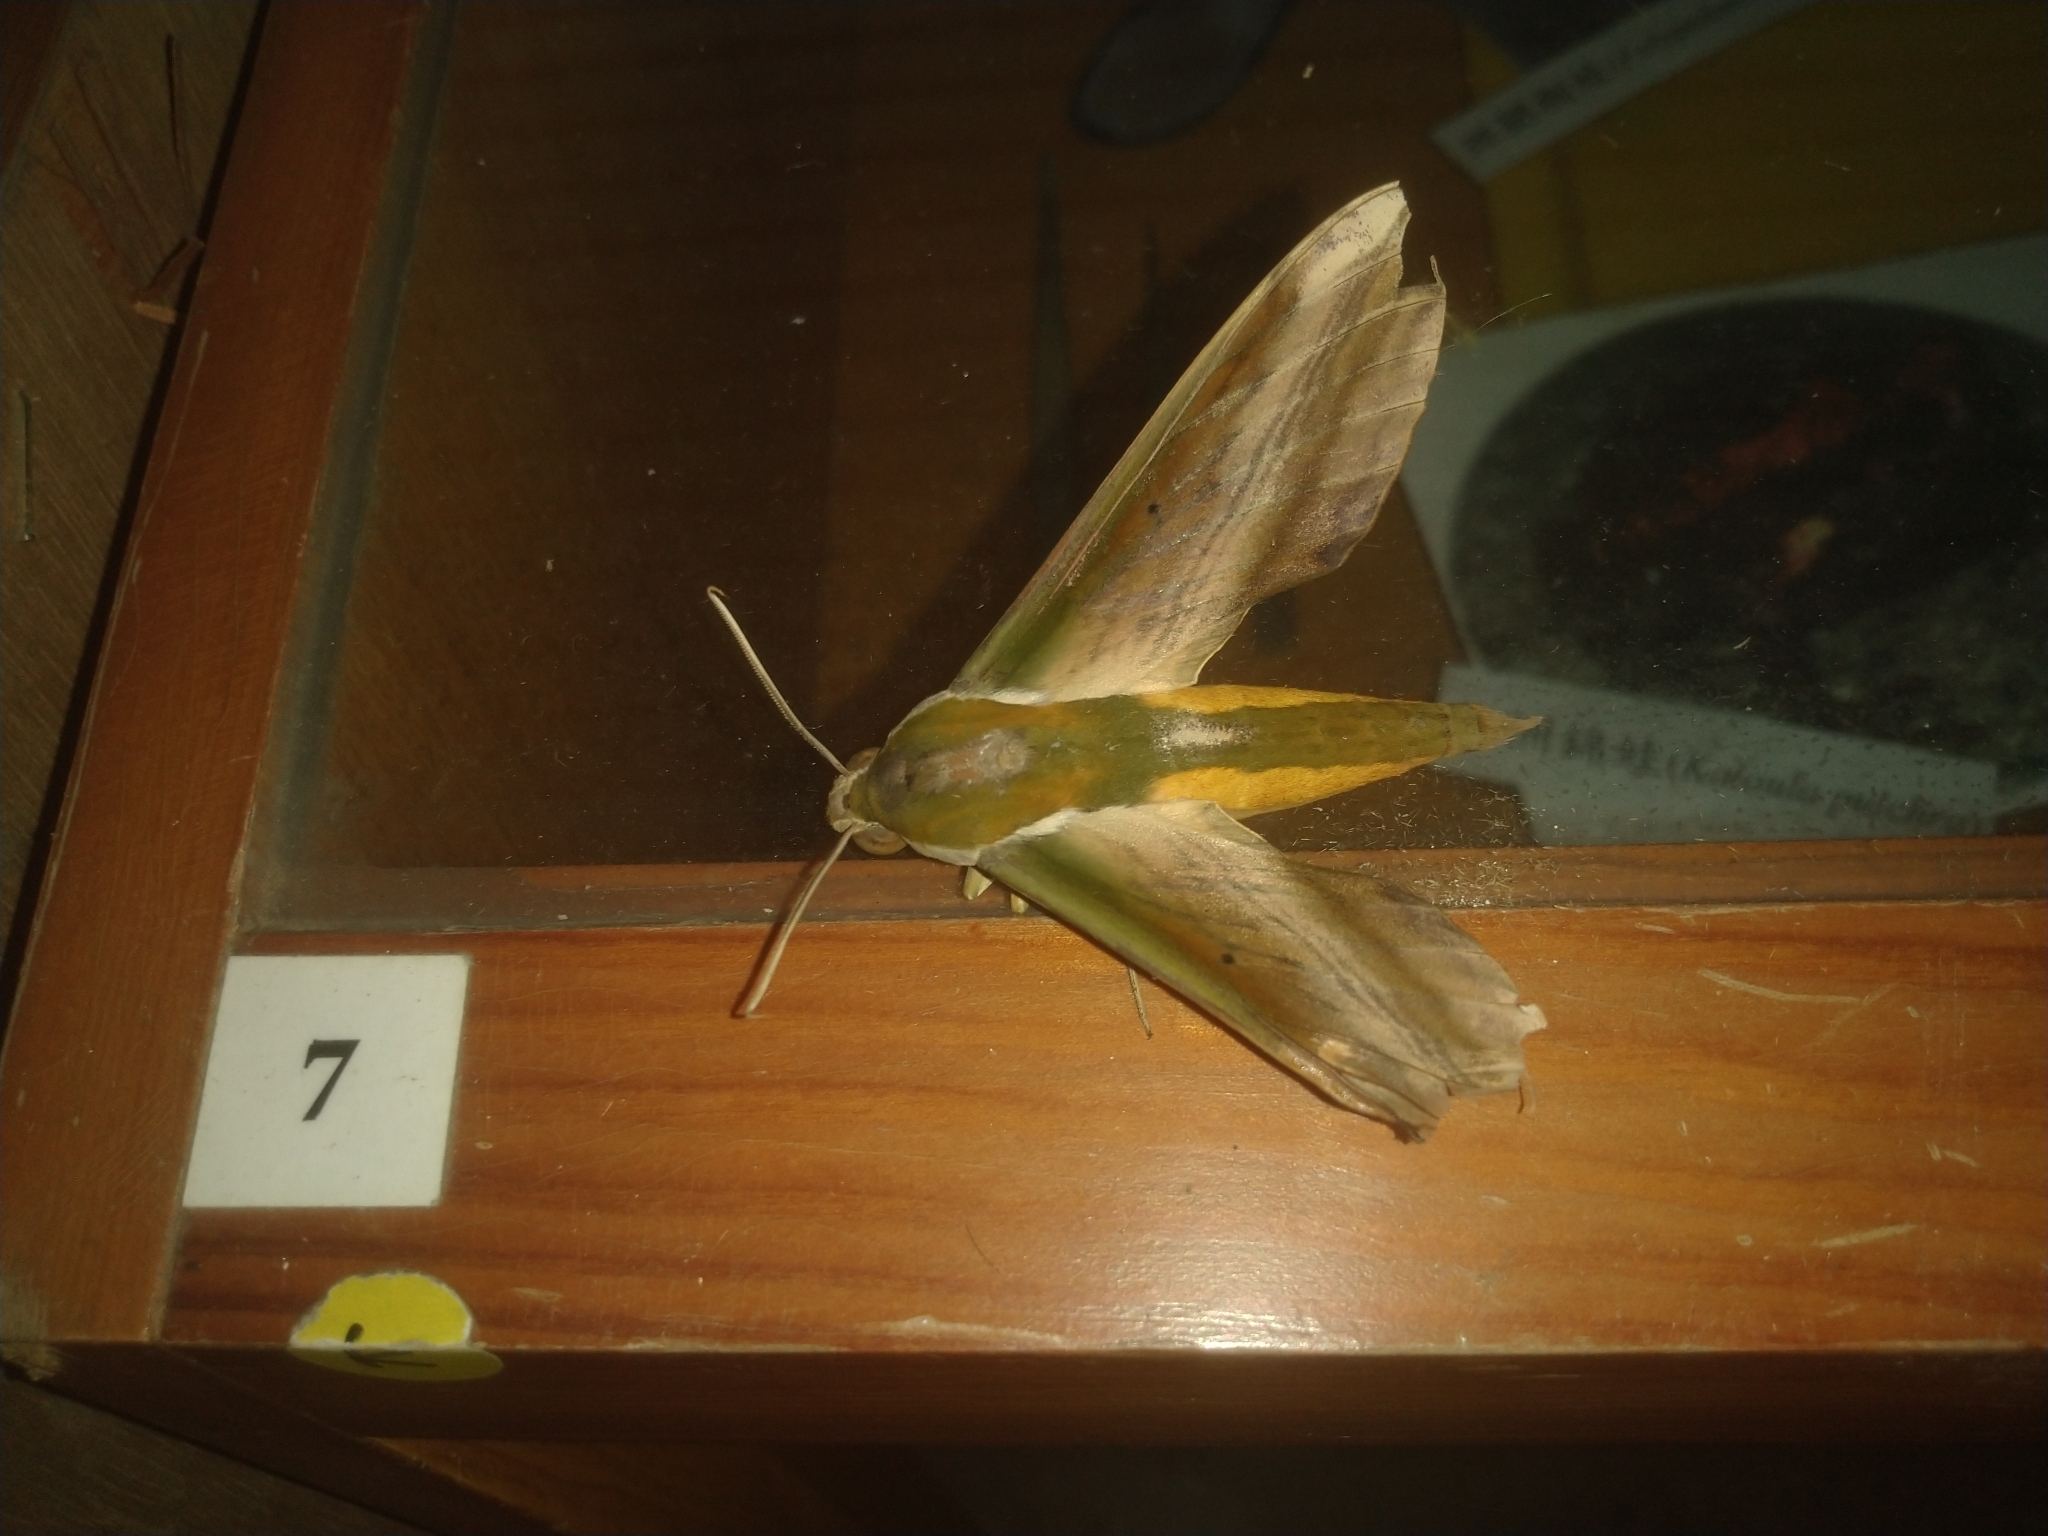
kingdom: Animalia
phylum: Arthropoda
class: Insecta
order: Lepidoptera
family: Sphingidae
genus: Theretra
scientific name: Theretra nessus
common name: Yam hawk moth
